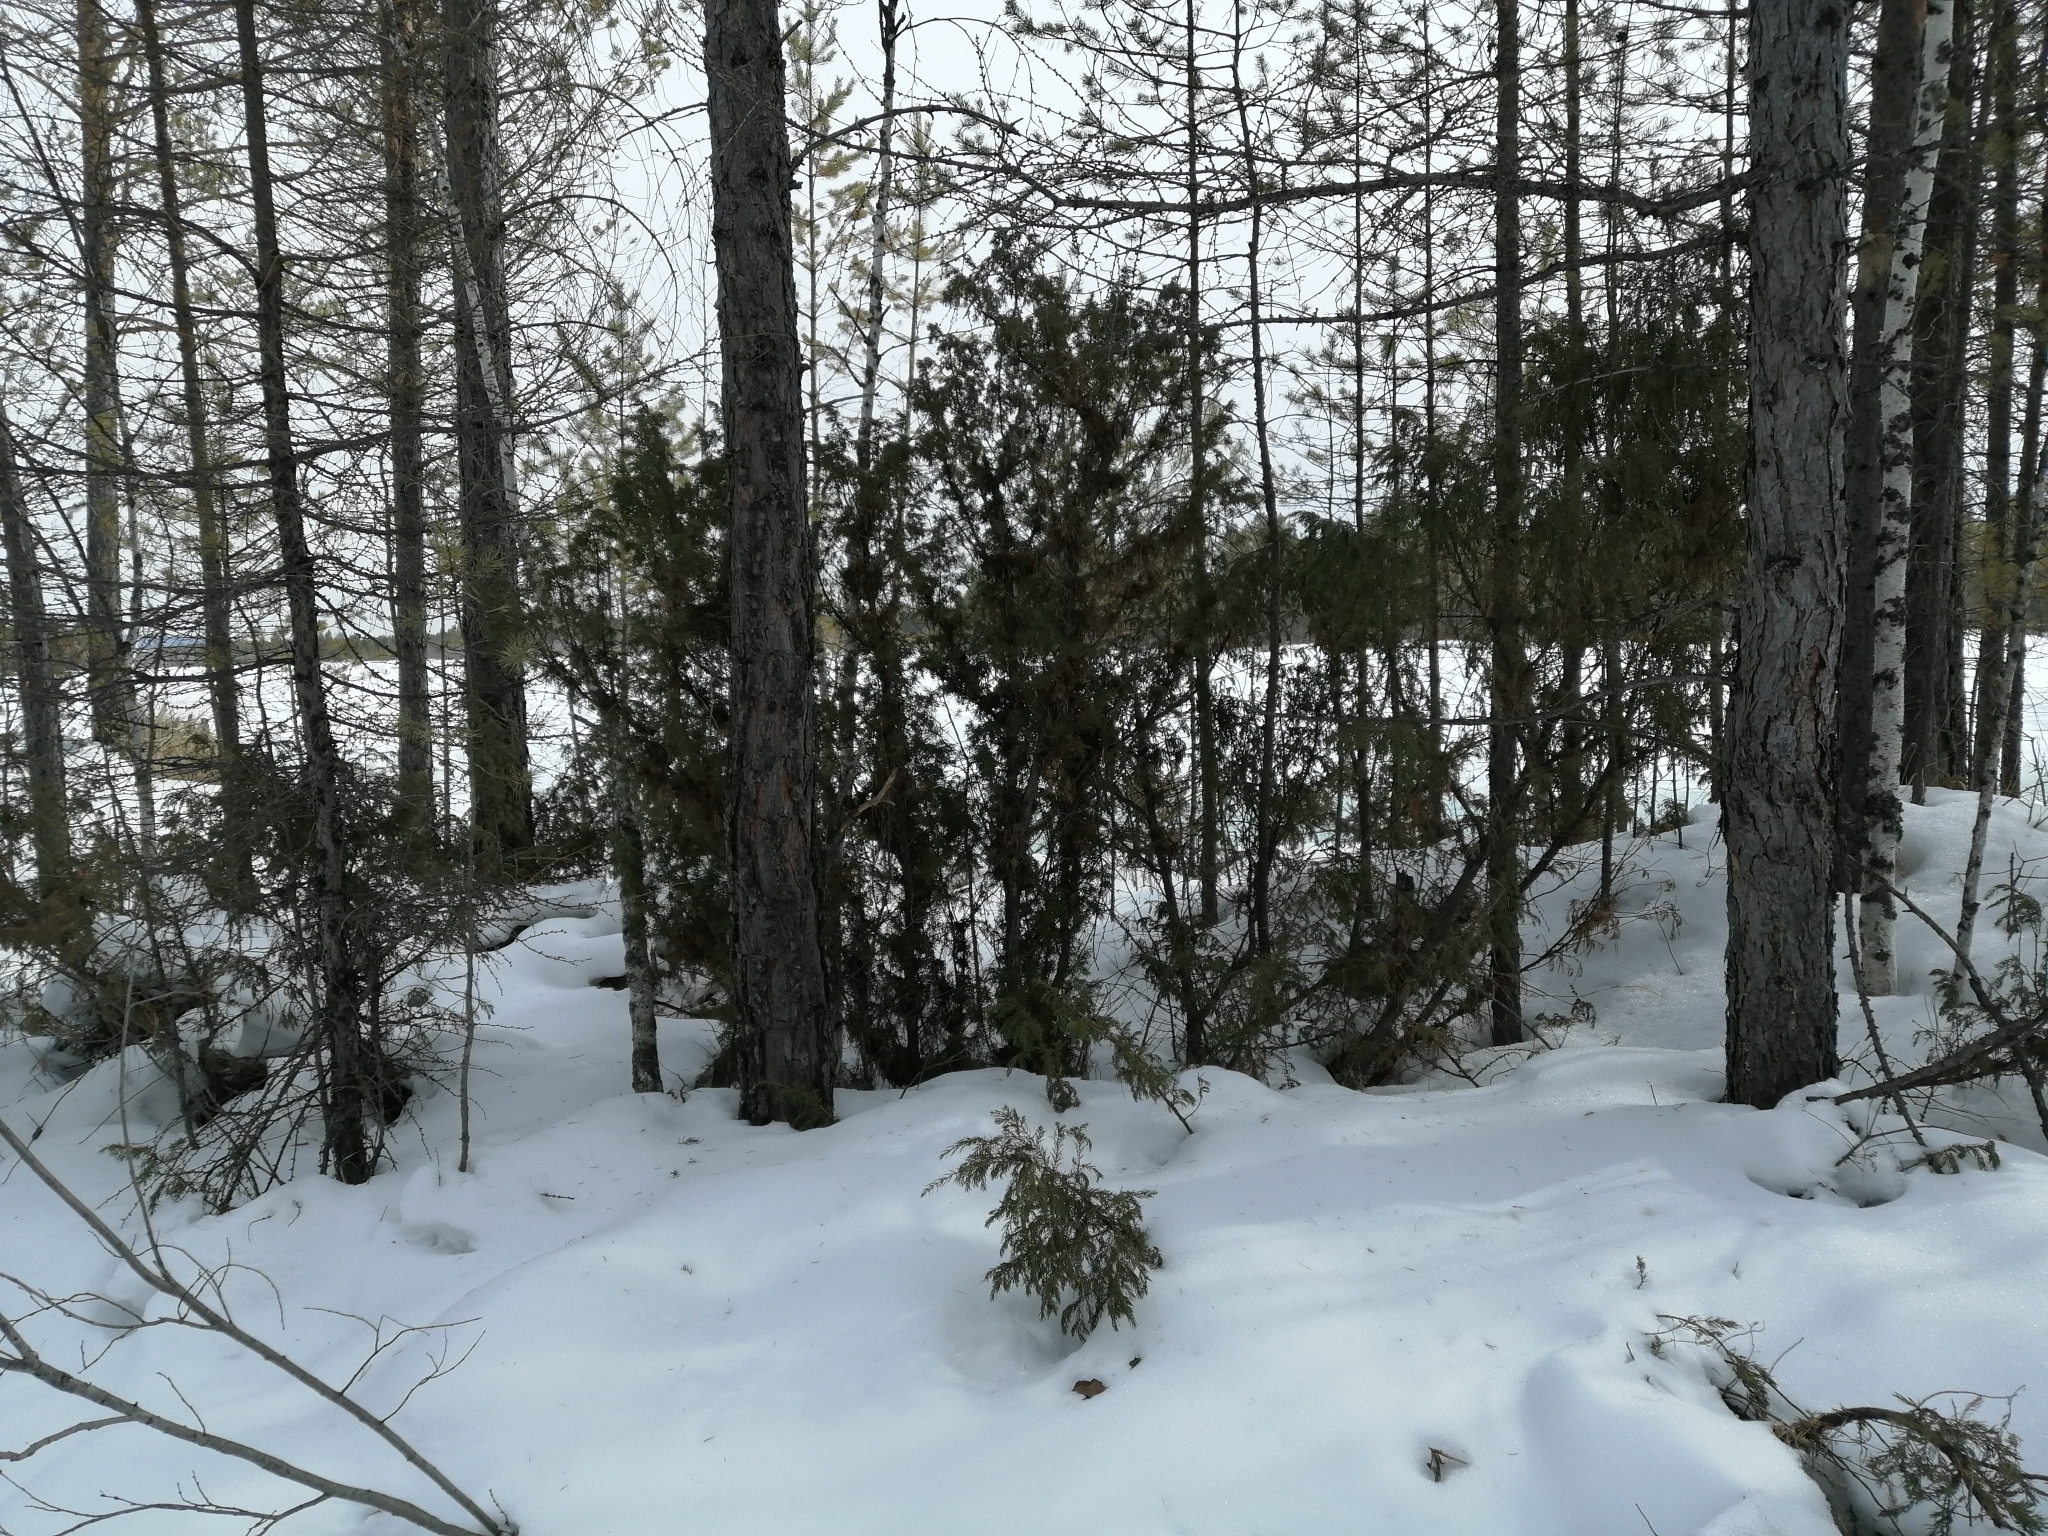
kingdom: Plantae
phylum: Tracheophyta
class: Pinopsida
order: Pinales
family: Cupressaceae
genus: Juniperus
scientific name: Juniperus communis
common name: Common juniper
